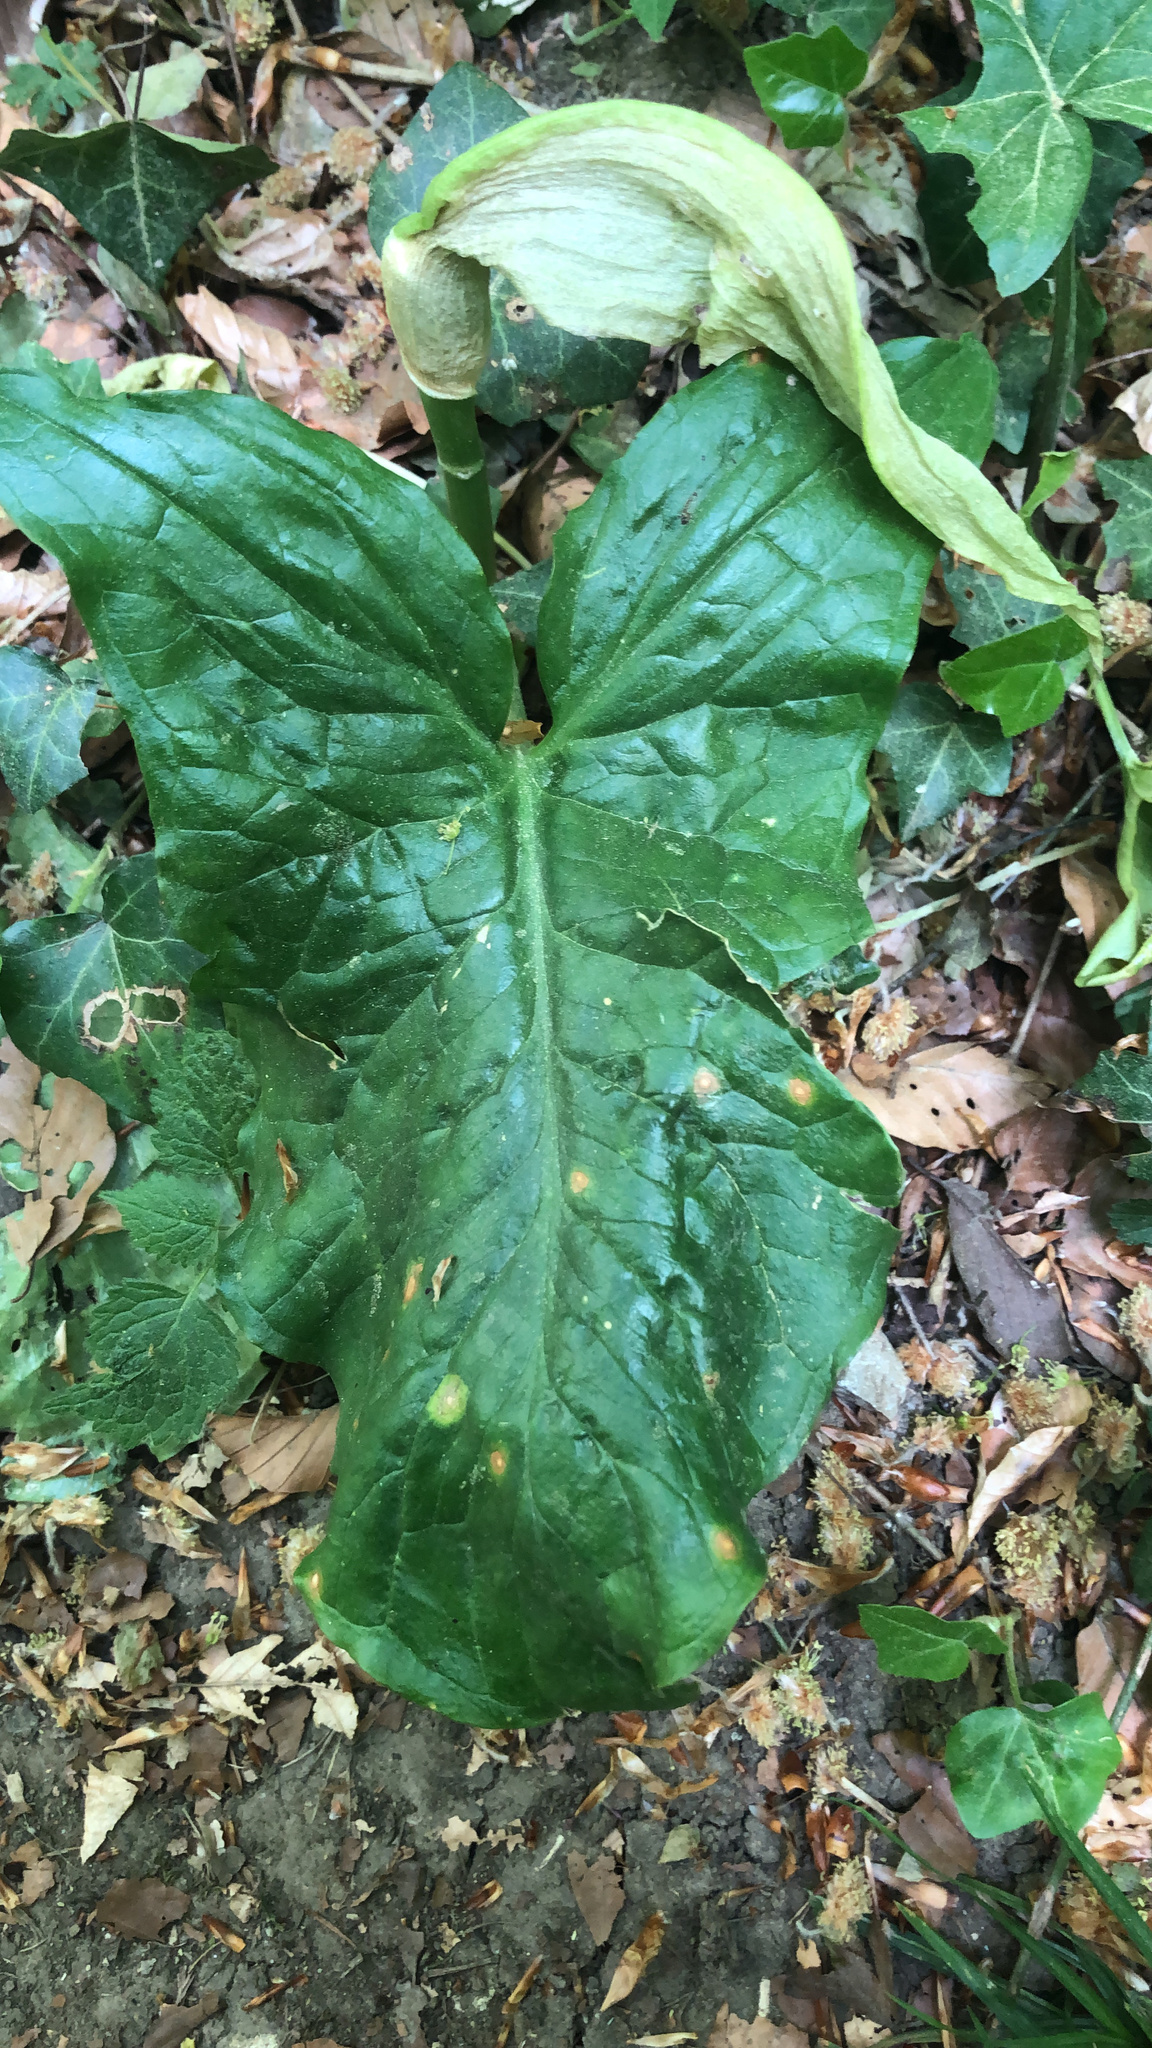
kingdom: Plantae
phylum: Tracheophyta
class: Liliopsida
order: Alismatales
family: Araceae
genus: Arum
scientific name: Arum maculatum
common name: Lords-and-ladies
